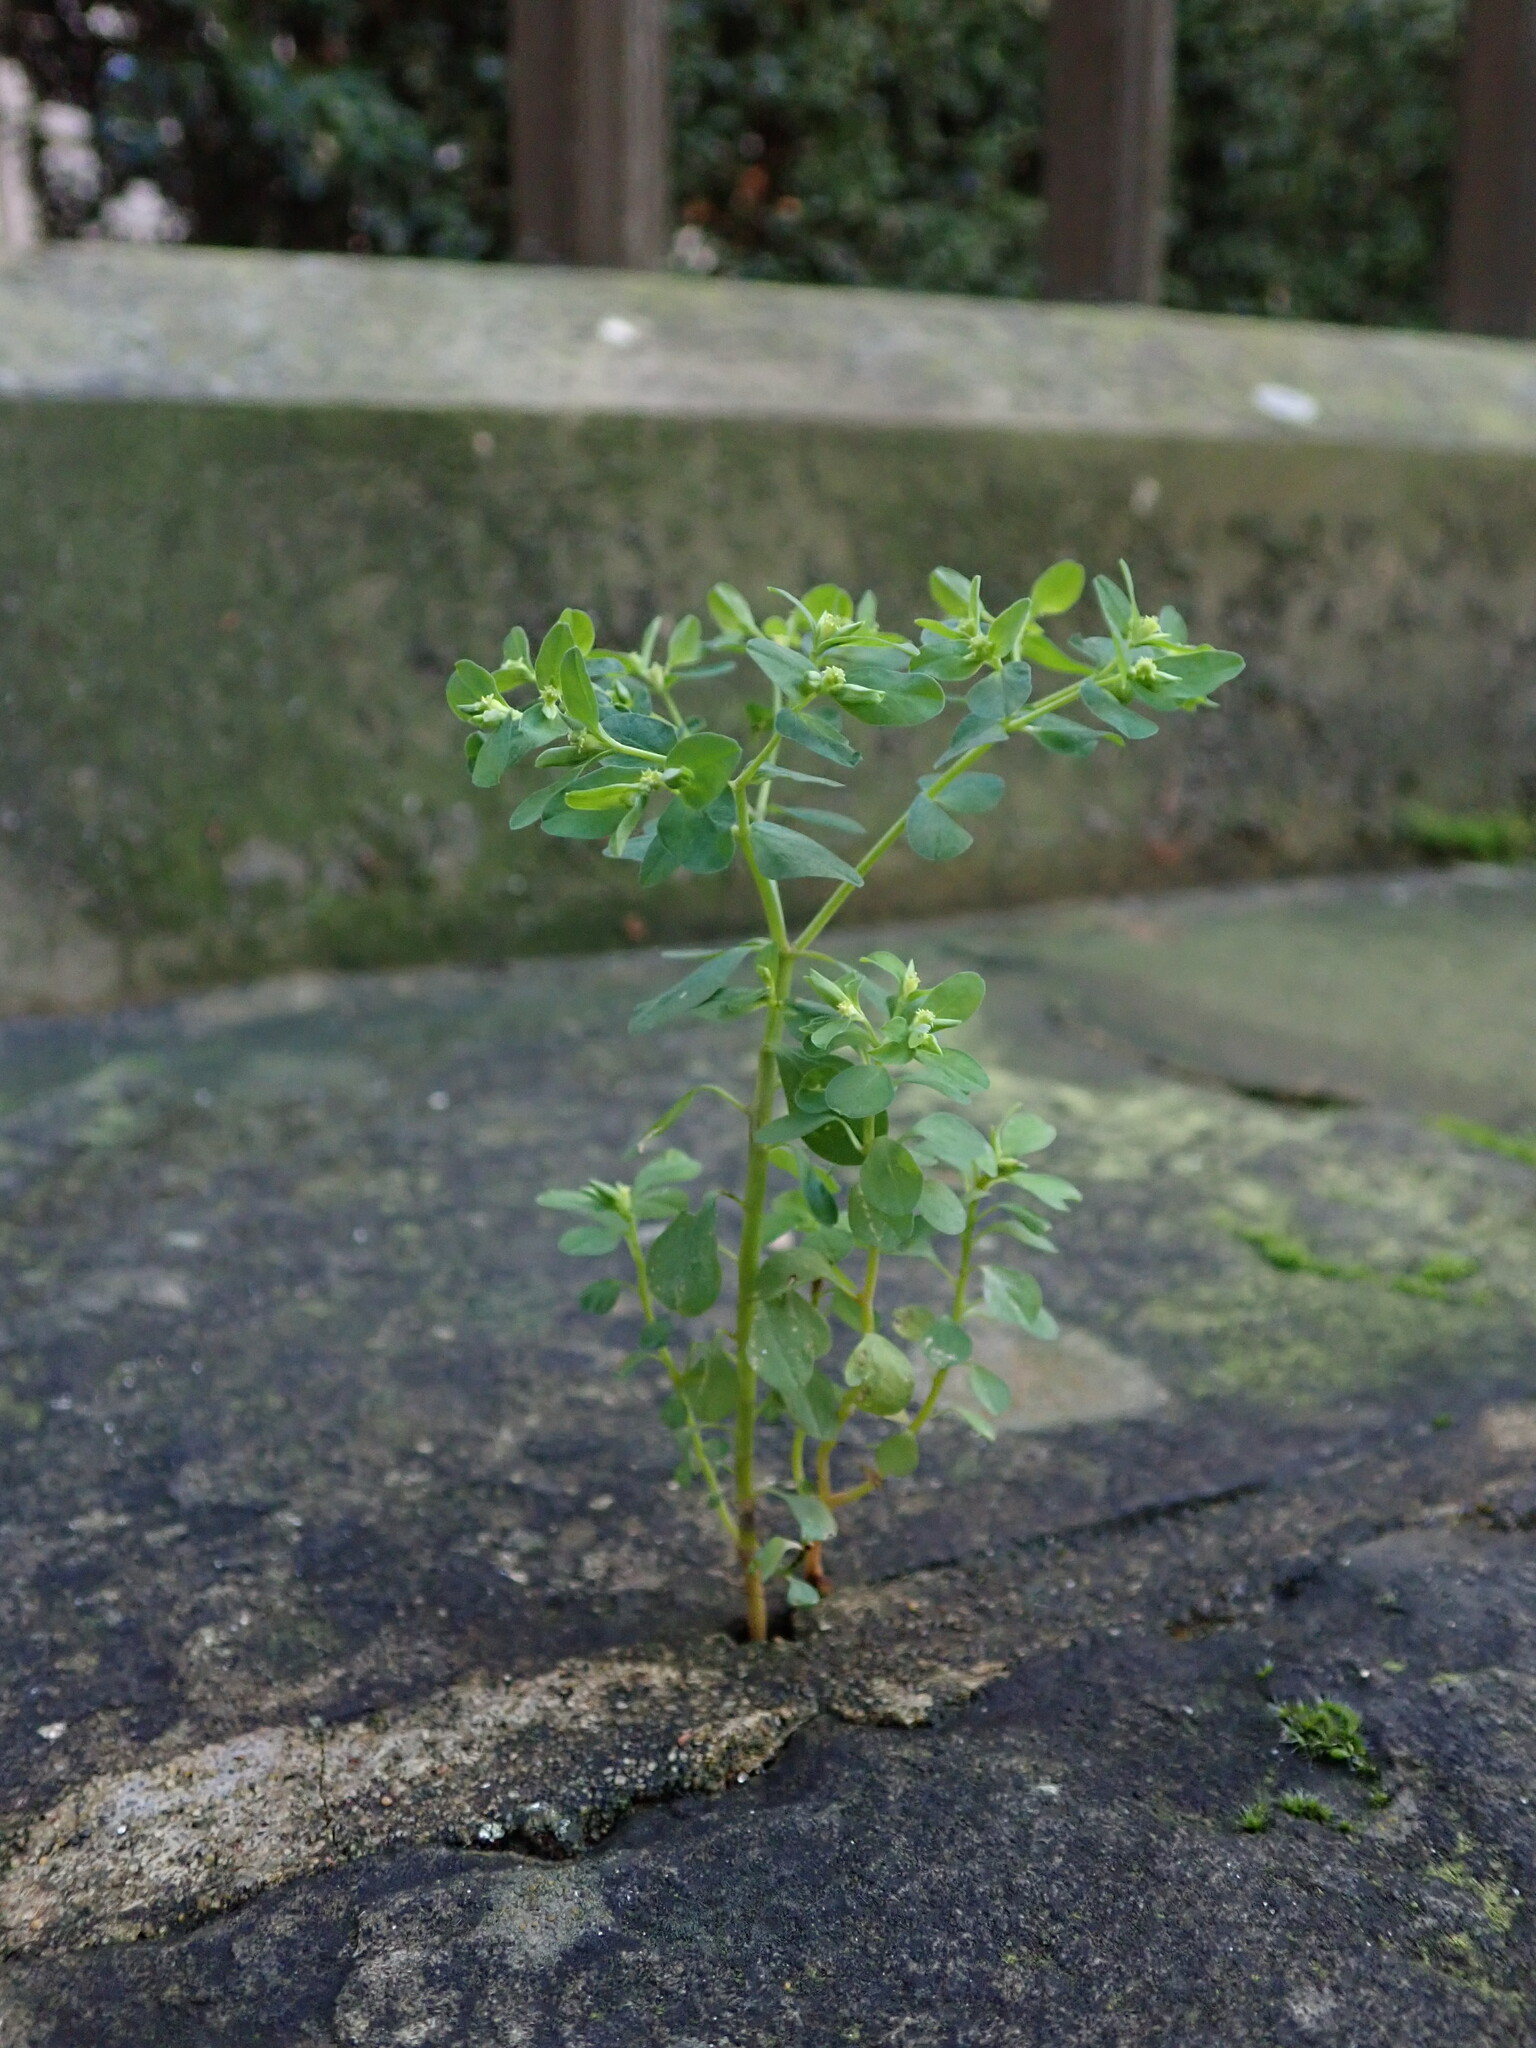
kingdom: Plantae
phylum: Tracheophyta
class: Magnoliopsida
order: Malpighiales
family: Euphorbiaceae
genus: Euphorbia
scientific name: Euphorbia peplus
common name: Petty spurge
